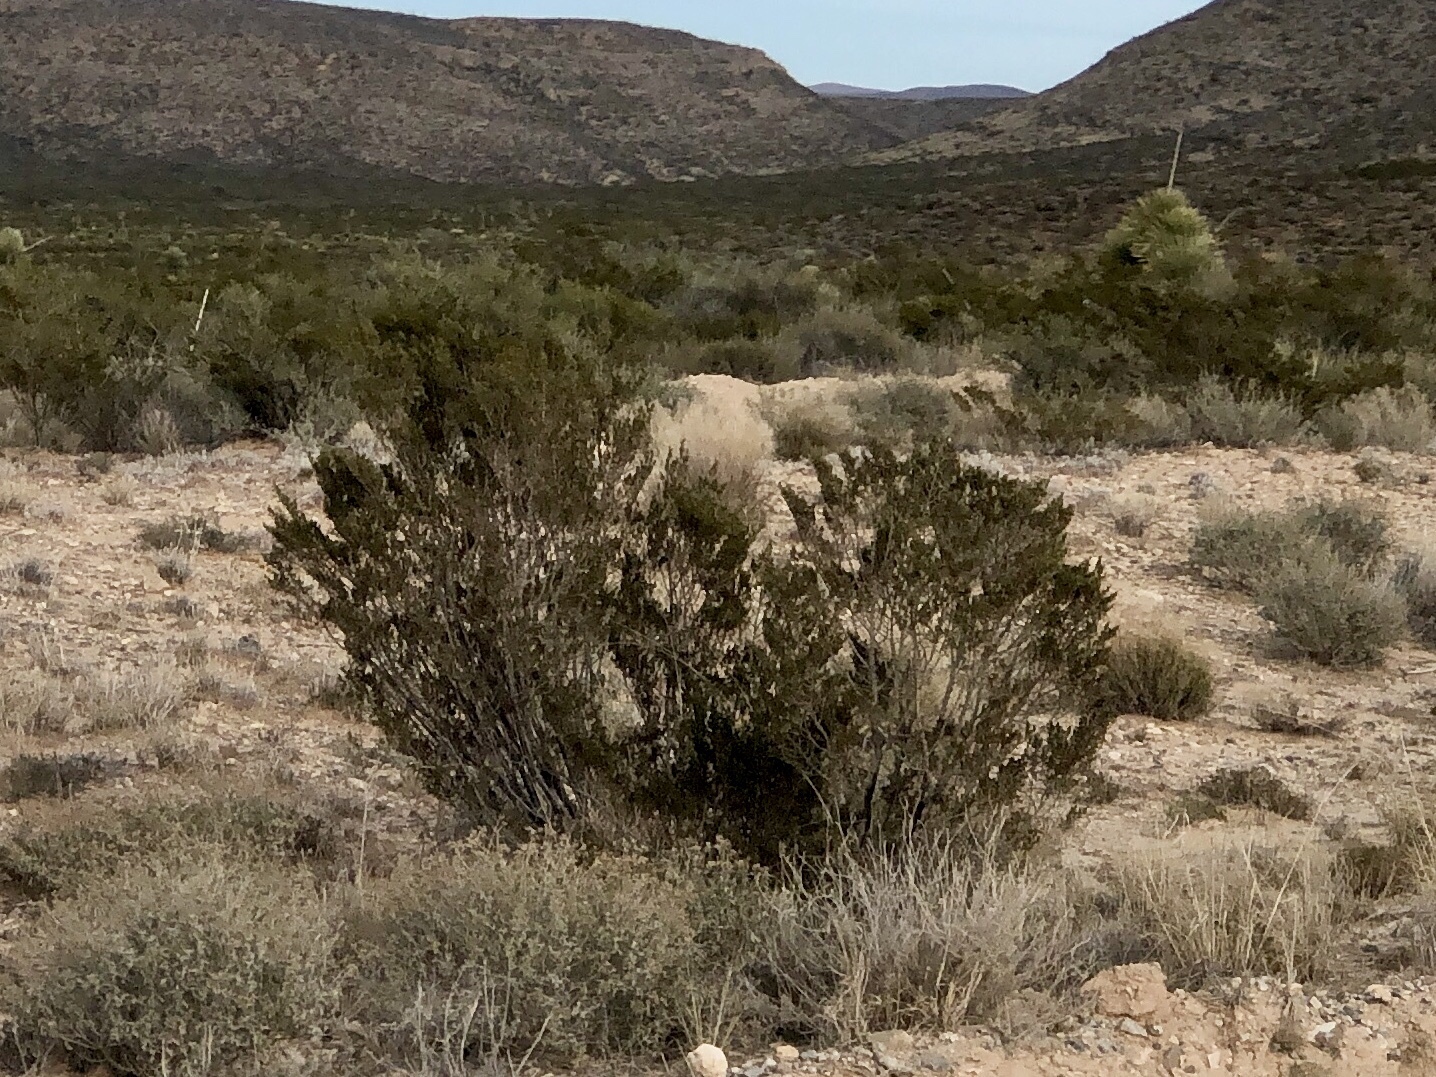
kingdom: Plantae
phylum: Tracheophyta
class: Magnoliopsida
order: Zygophyllales
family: Zygophyllaceae
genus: Larrea
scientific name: Larrea tridentata
